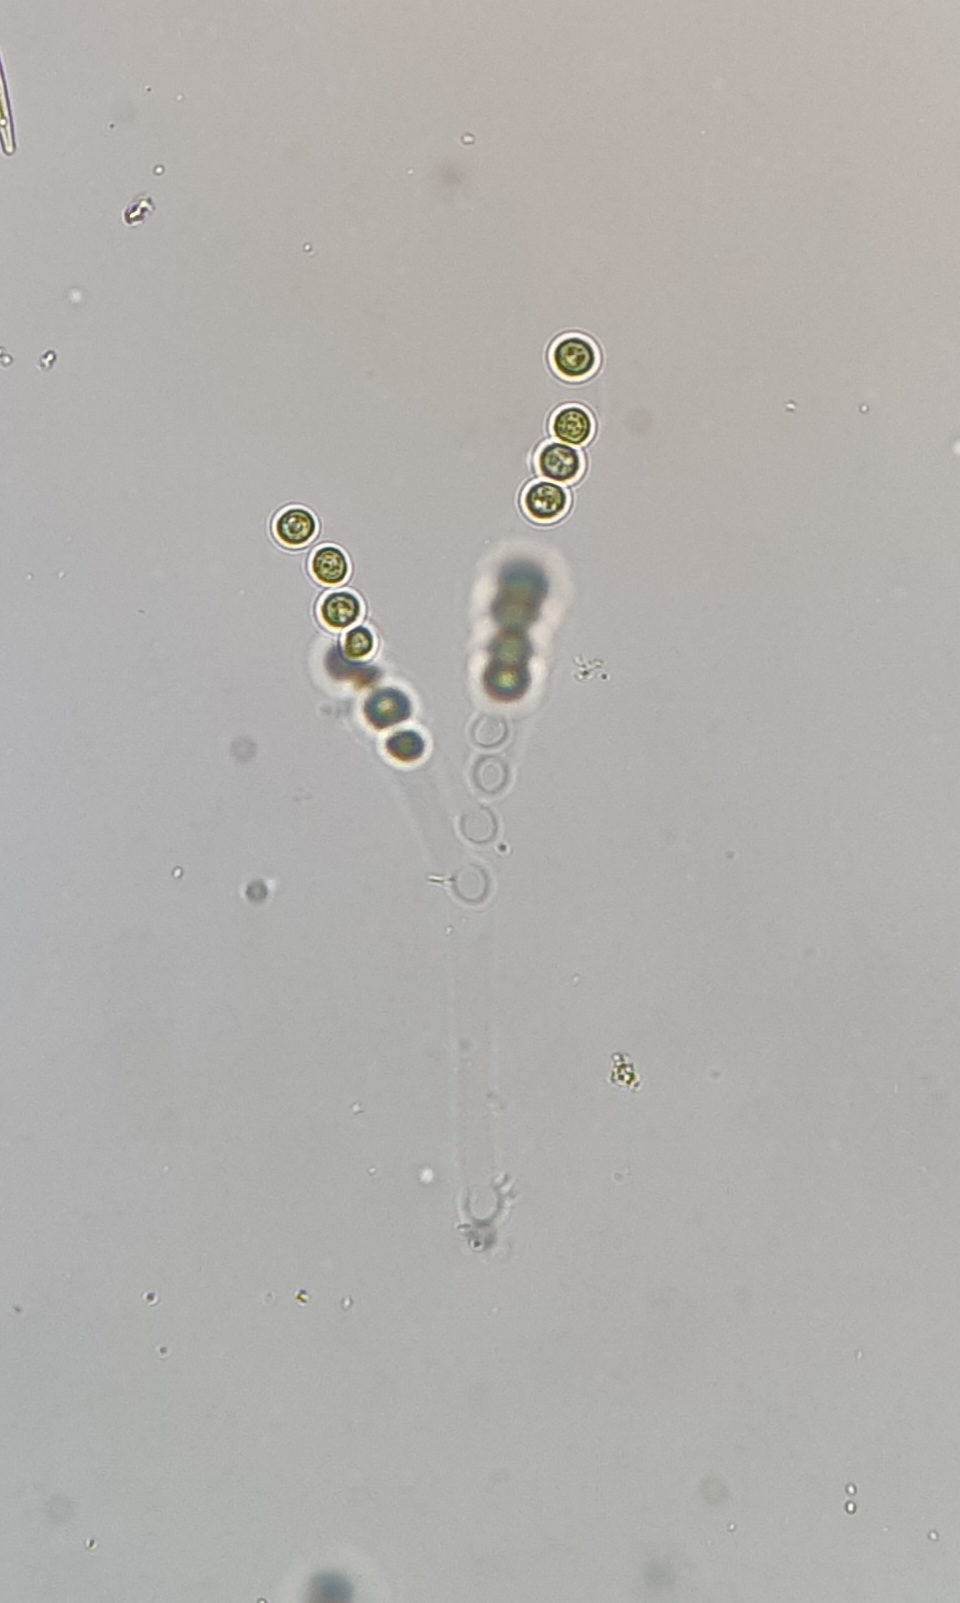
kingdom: Chromista
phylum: Ochrophyta
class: Xanthophyceae
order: Mischococcales
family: Mischococcaceae
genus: Mischococcus
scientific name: Mischococcus confervicola
